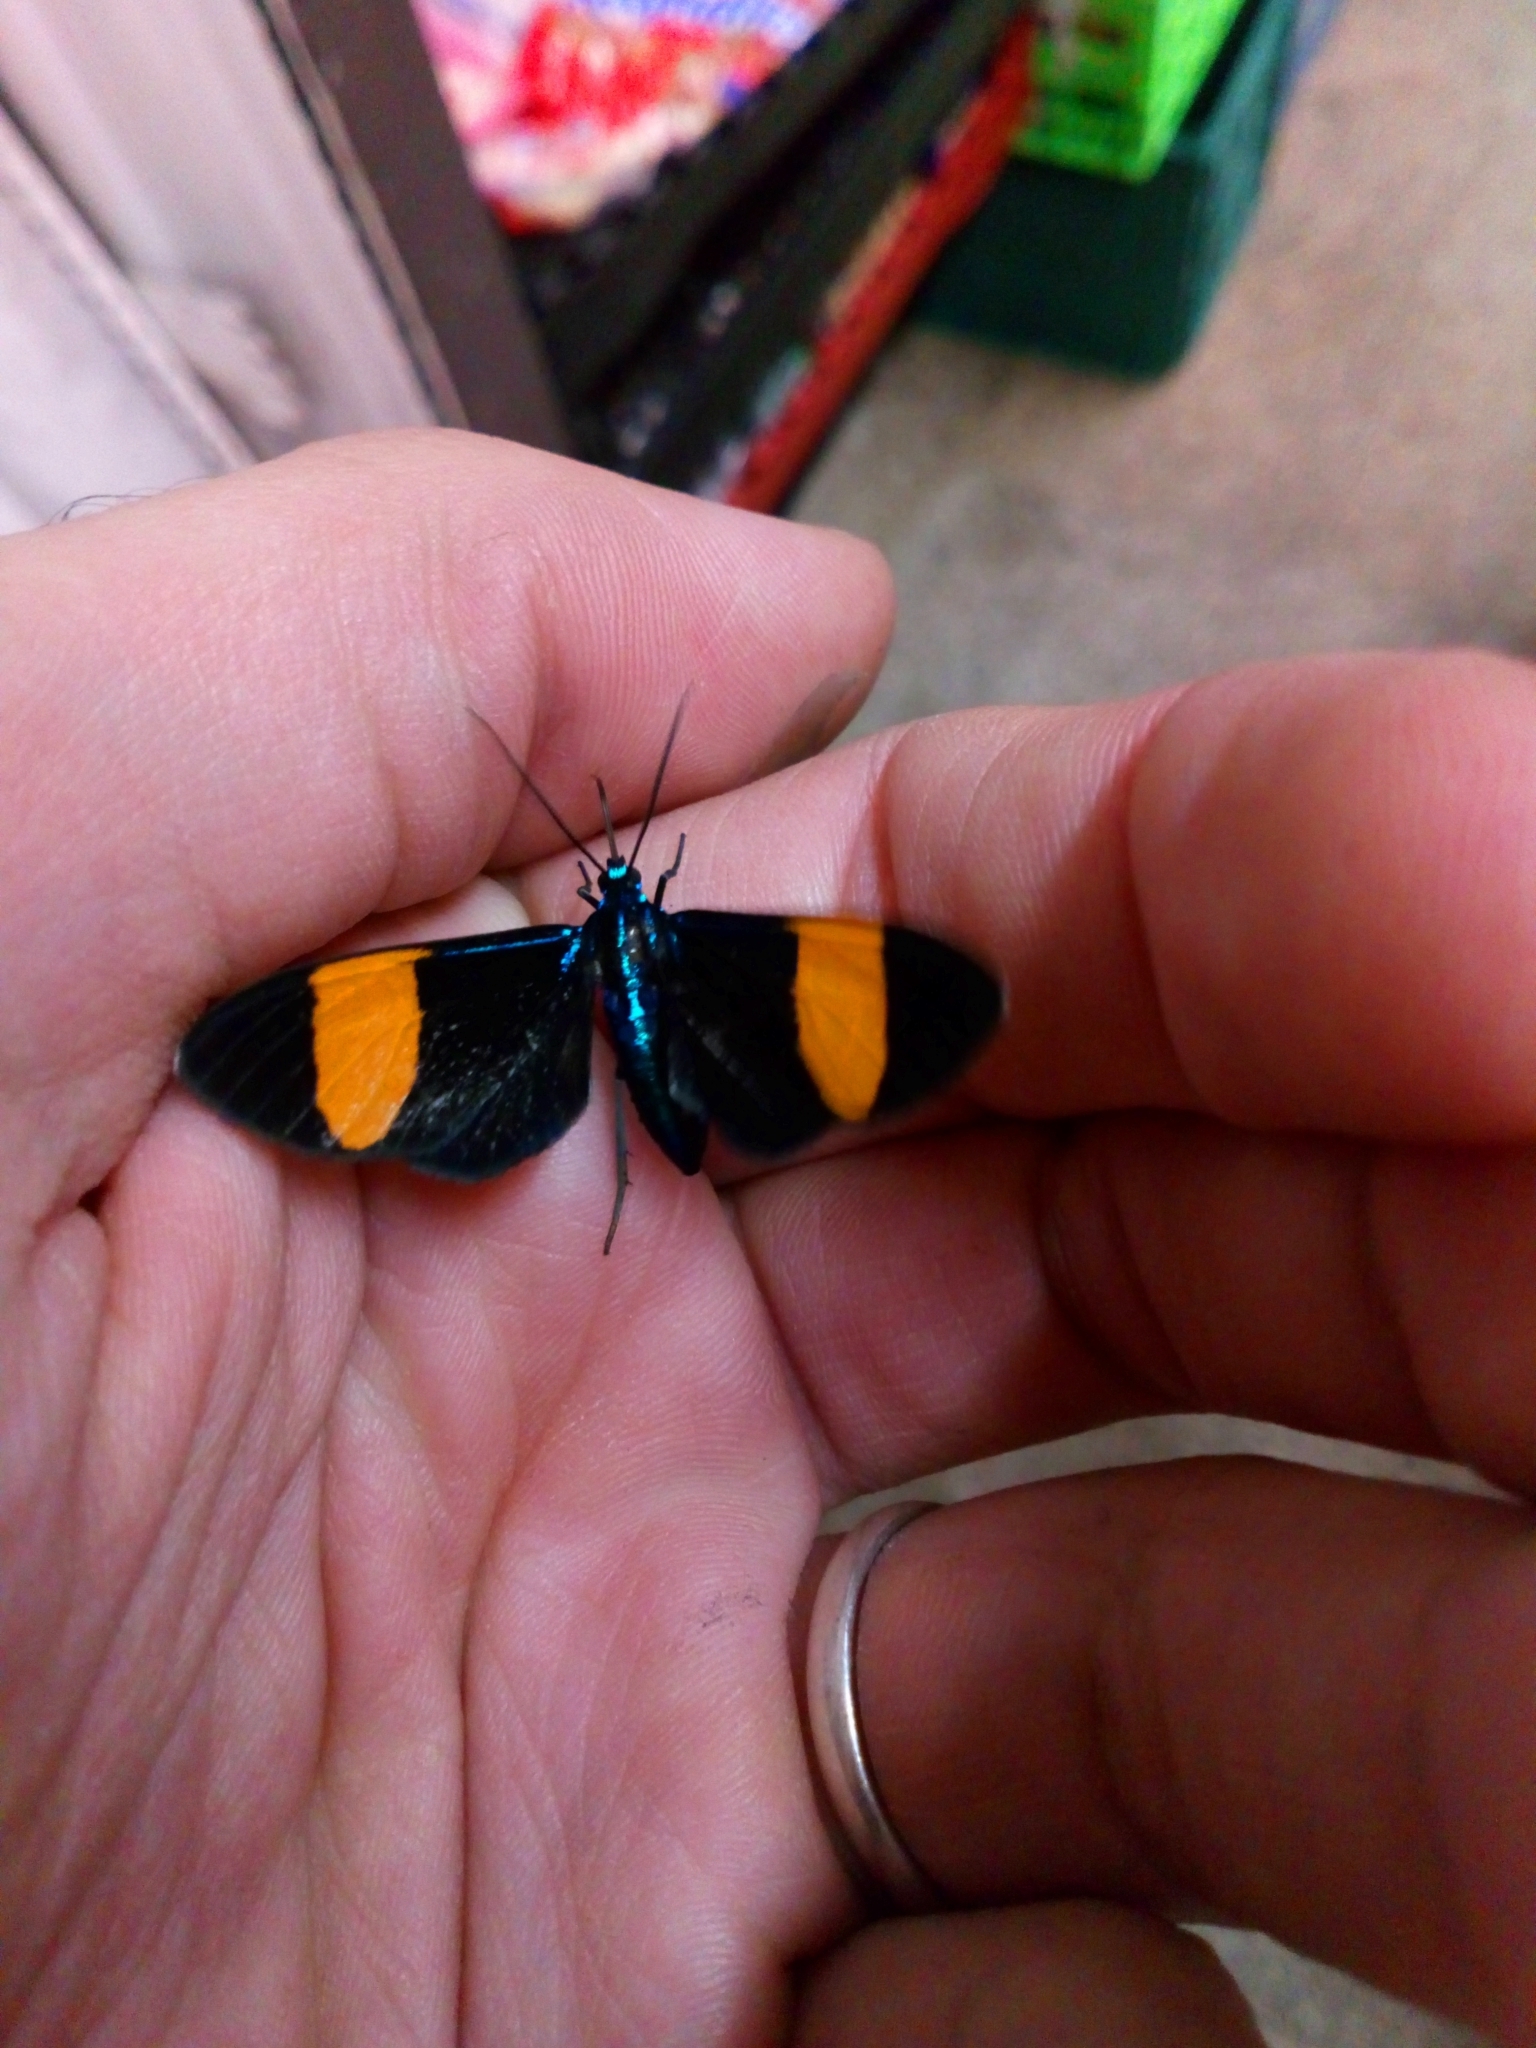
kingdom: Animalia
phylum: Arthropoda
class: Insecta
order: Lepidoptera
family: Erebidae
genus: Cyanopepla
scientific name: Cyanopepla similis
